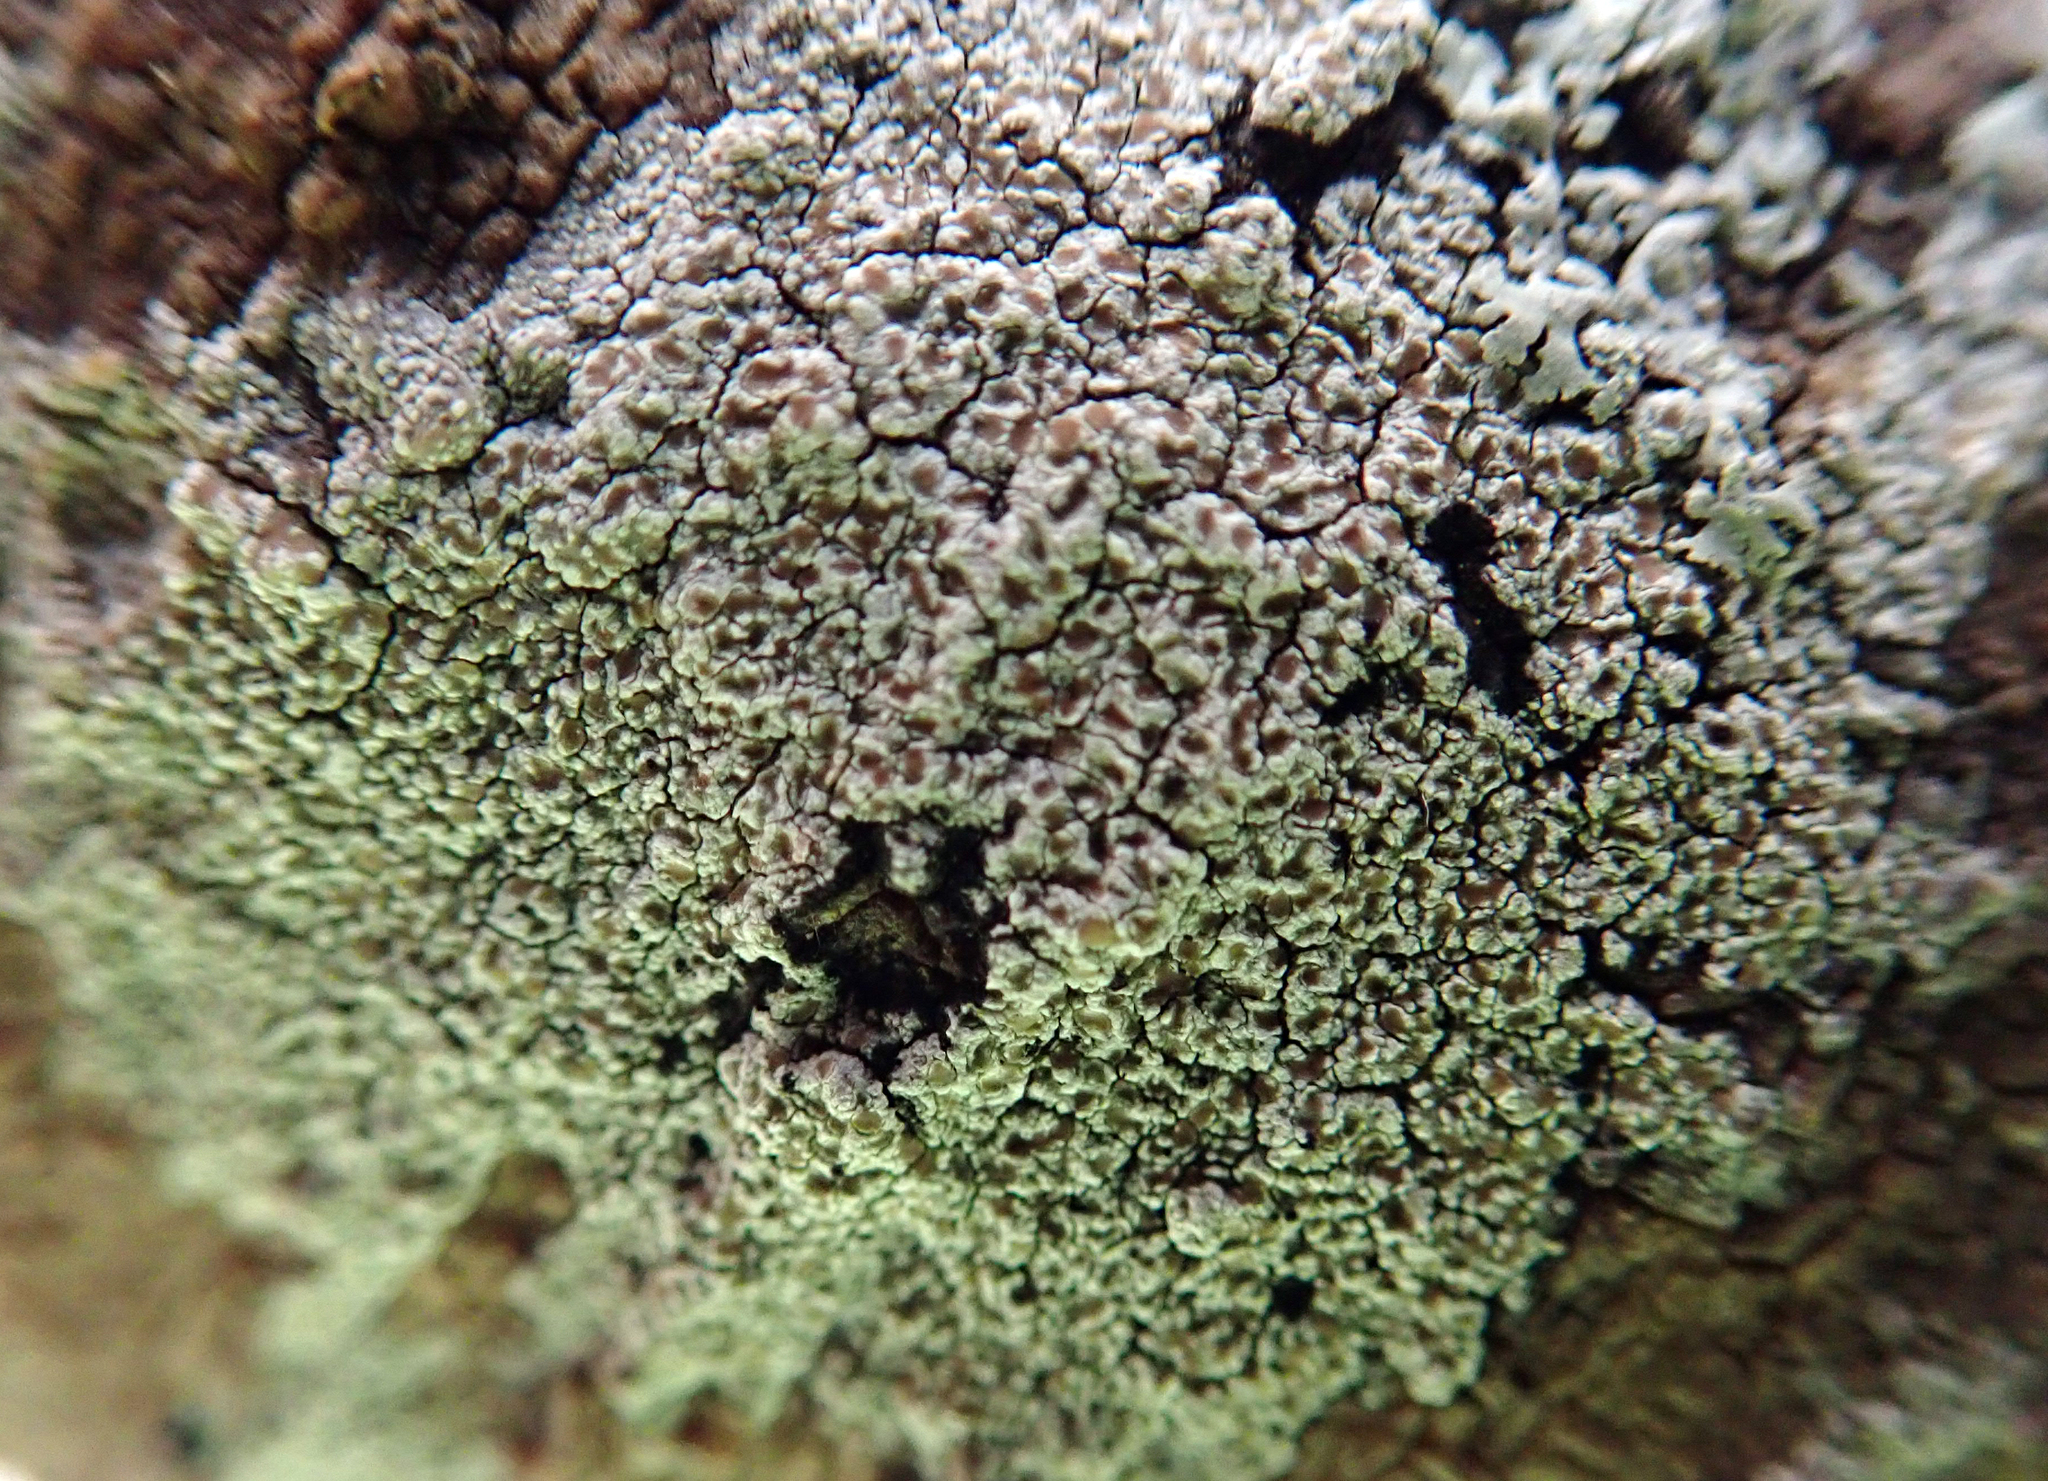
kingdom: Fungi
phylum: Ascomycota
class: Lecanoromycetes
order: Lecanorales
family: Lecanoraceae
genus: Lecanora
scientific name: Lecanora kohu
